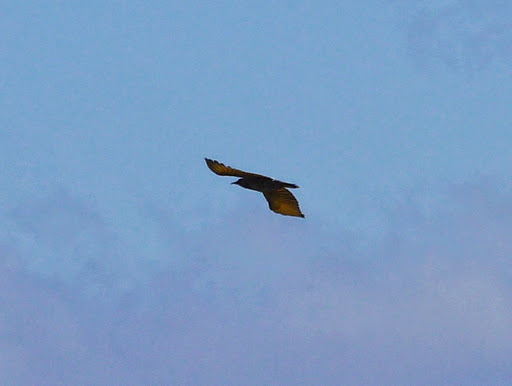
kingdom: Animalia
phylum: Chordata
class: Aves
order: Piciformes
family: Picidae
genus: Colaptes
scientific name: Colaptes auratus
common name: Northern flicker
